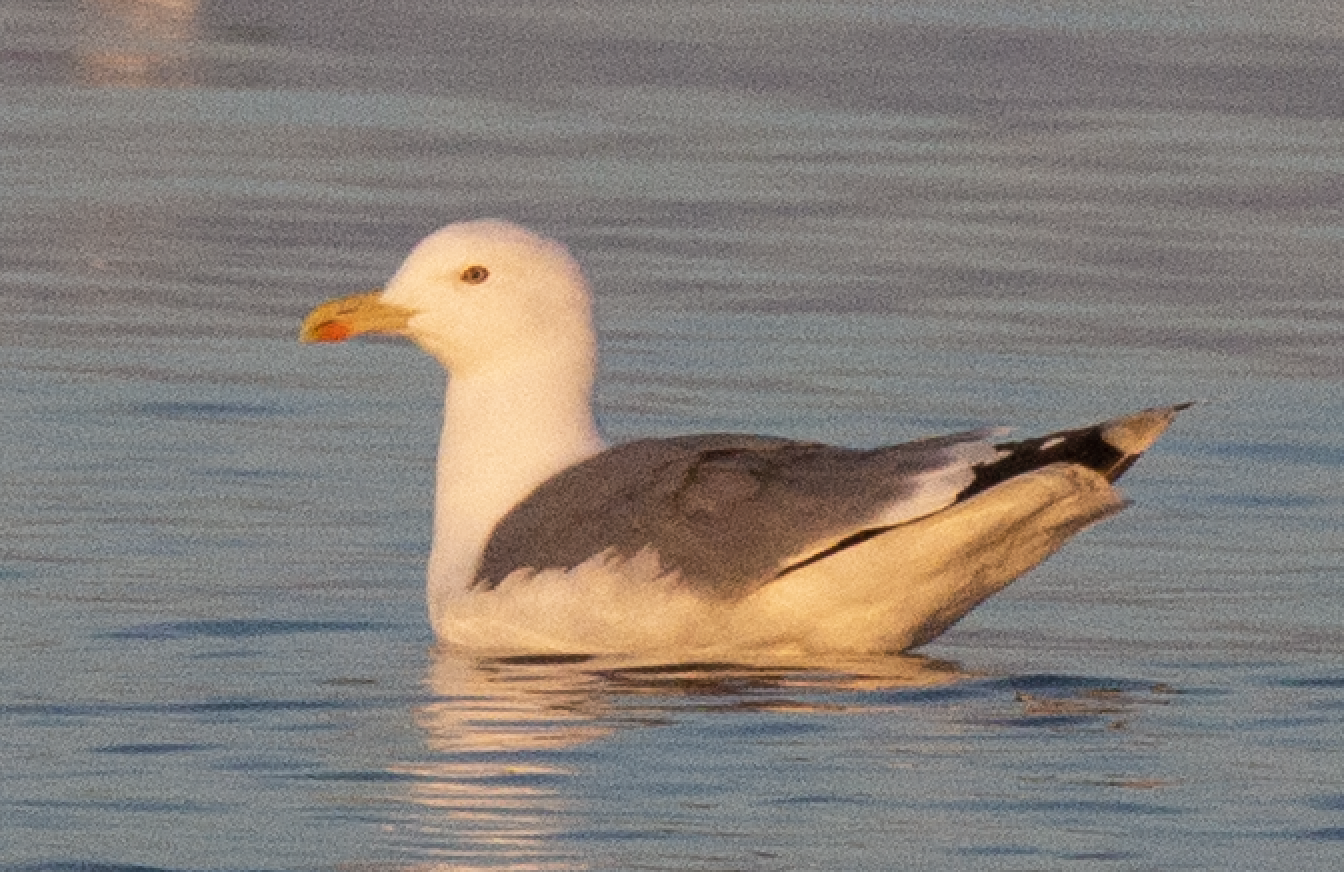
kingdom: Animalia
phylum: Chordata
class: Aves
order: Charadriiformes
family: Laridae
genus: Larus
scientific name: Larus michahellis
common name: Yellow-legged gull
